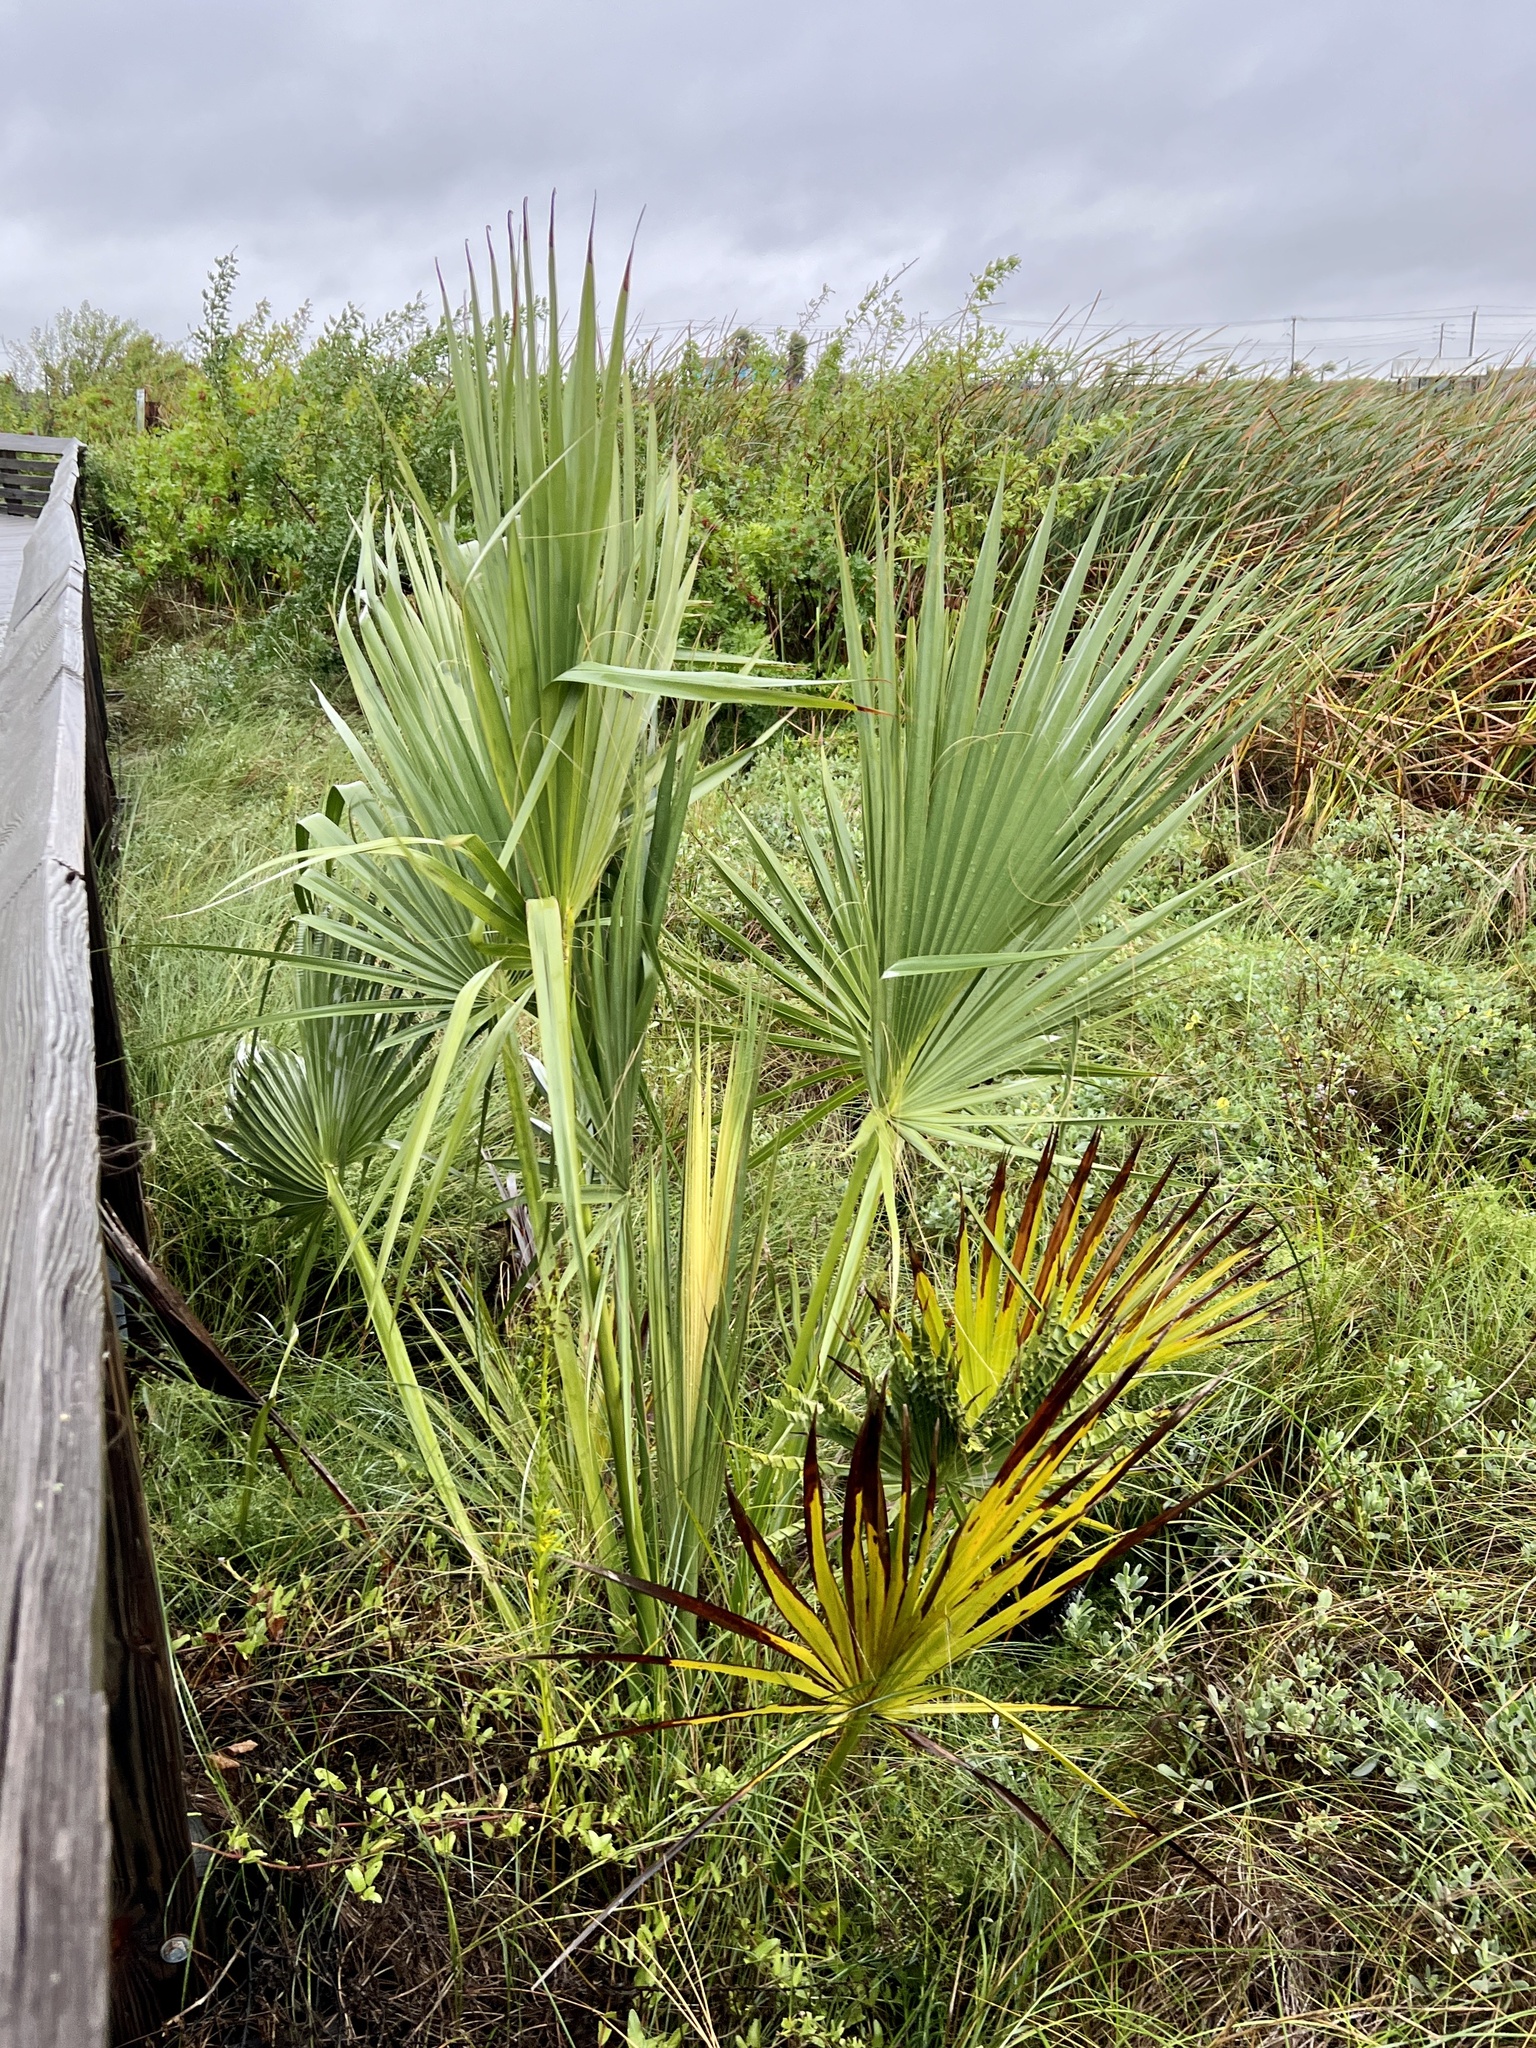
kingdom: Plantae
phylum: Tracheophyta
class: Liliopsida
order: Arecales
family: Arecaceae
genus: Sabal
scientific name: Sabal mexicana
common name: Texas palmetto
